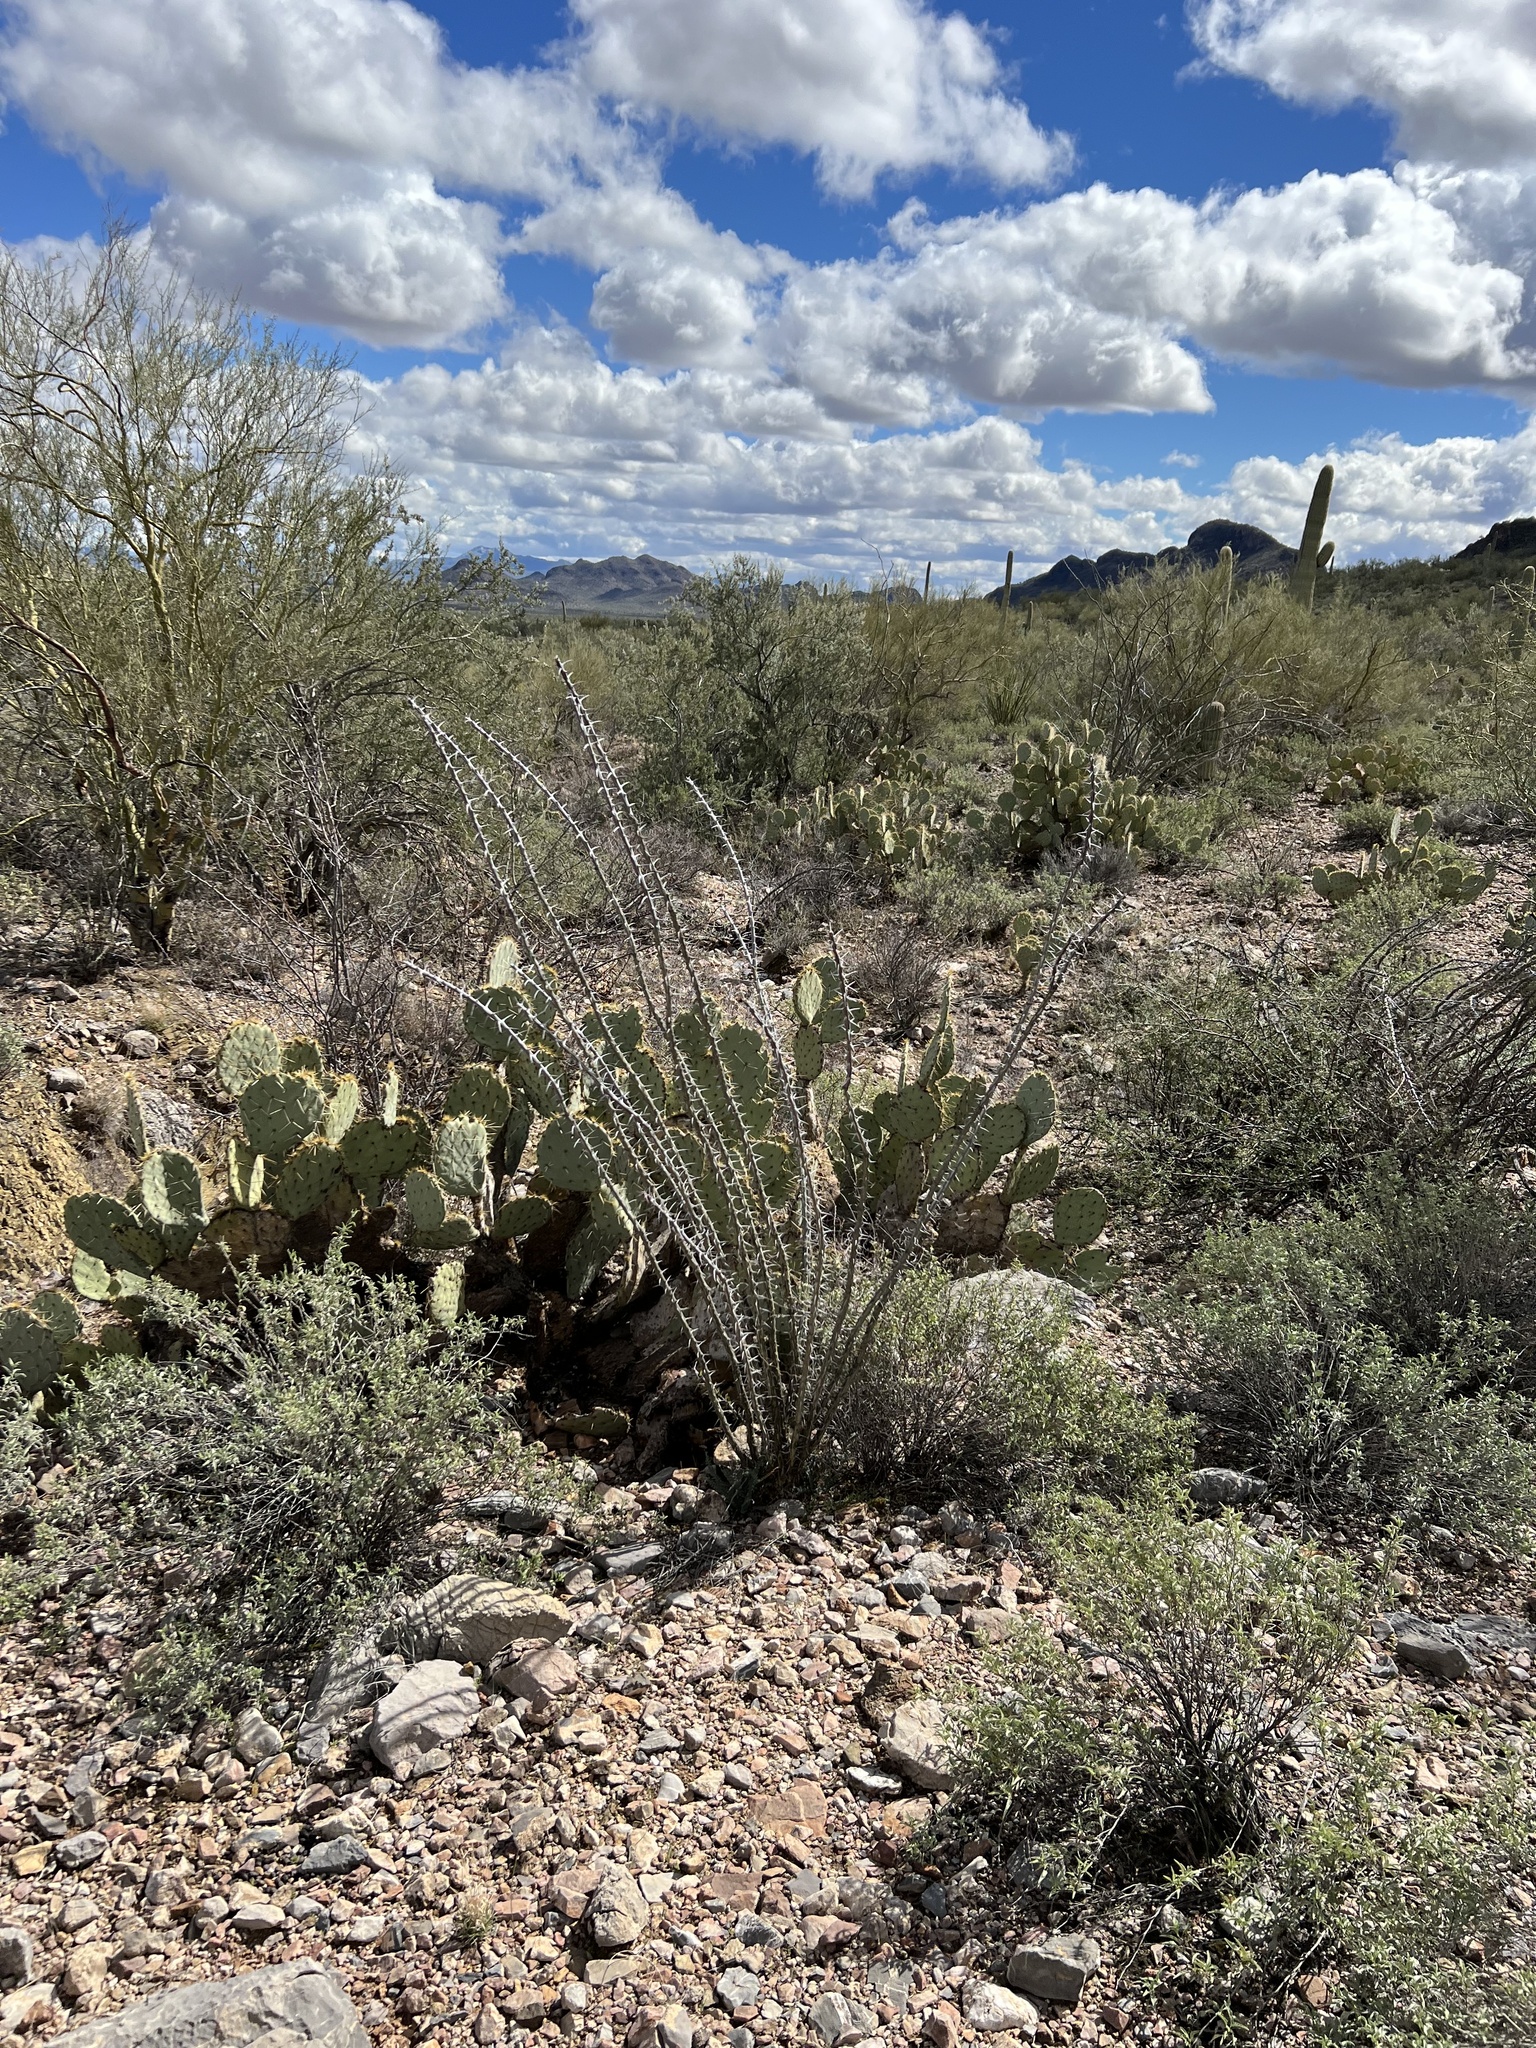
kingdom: Plantae
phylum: Tracheophyta
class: Magnoliopsida
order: Ericales
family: Fouquieriaceae
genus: Fouquieria
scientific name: Fouquieria splendens
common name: Vine-cactus
